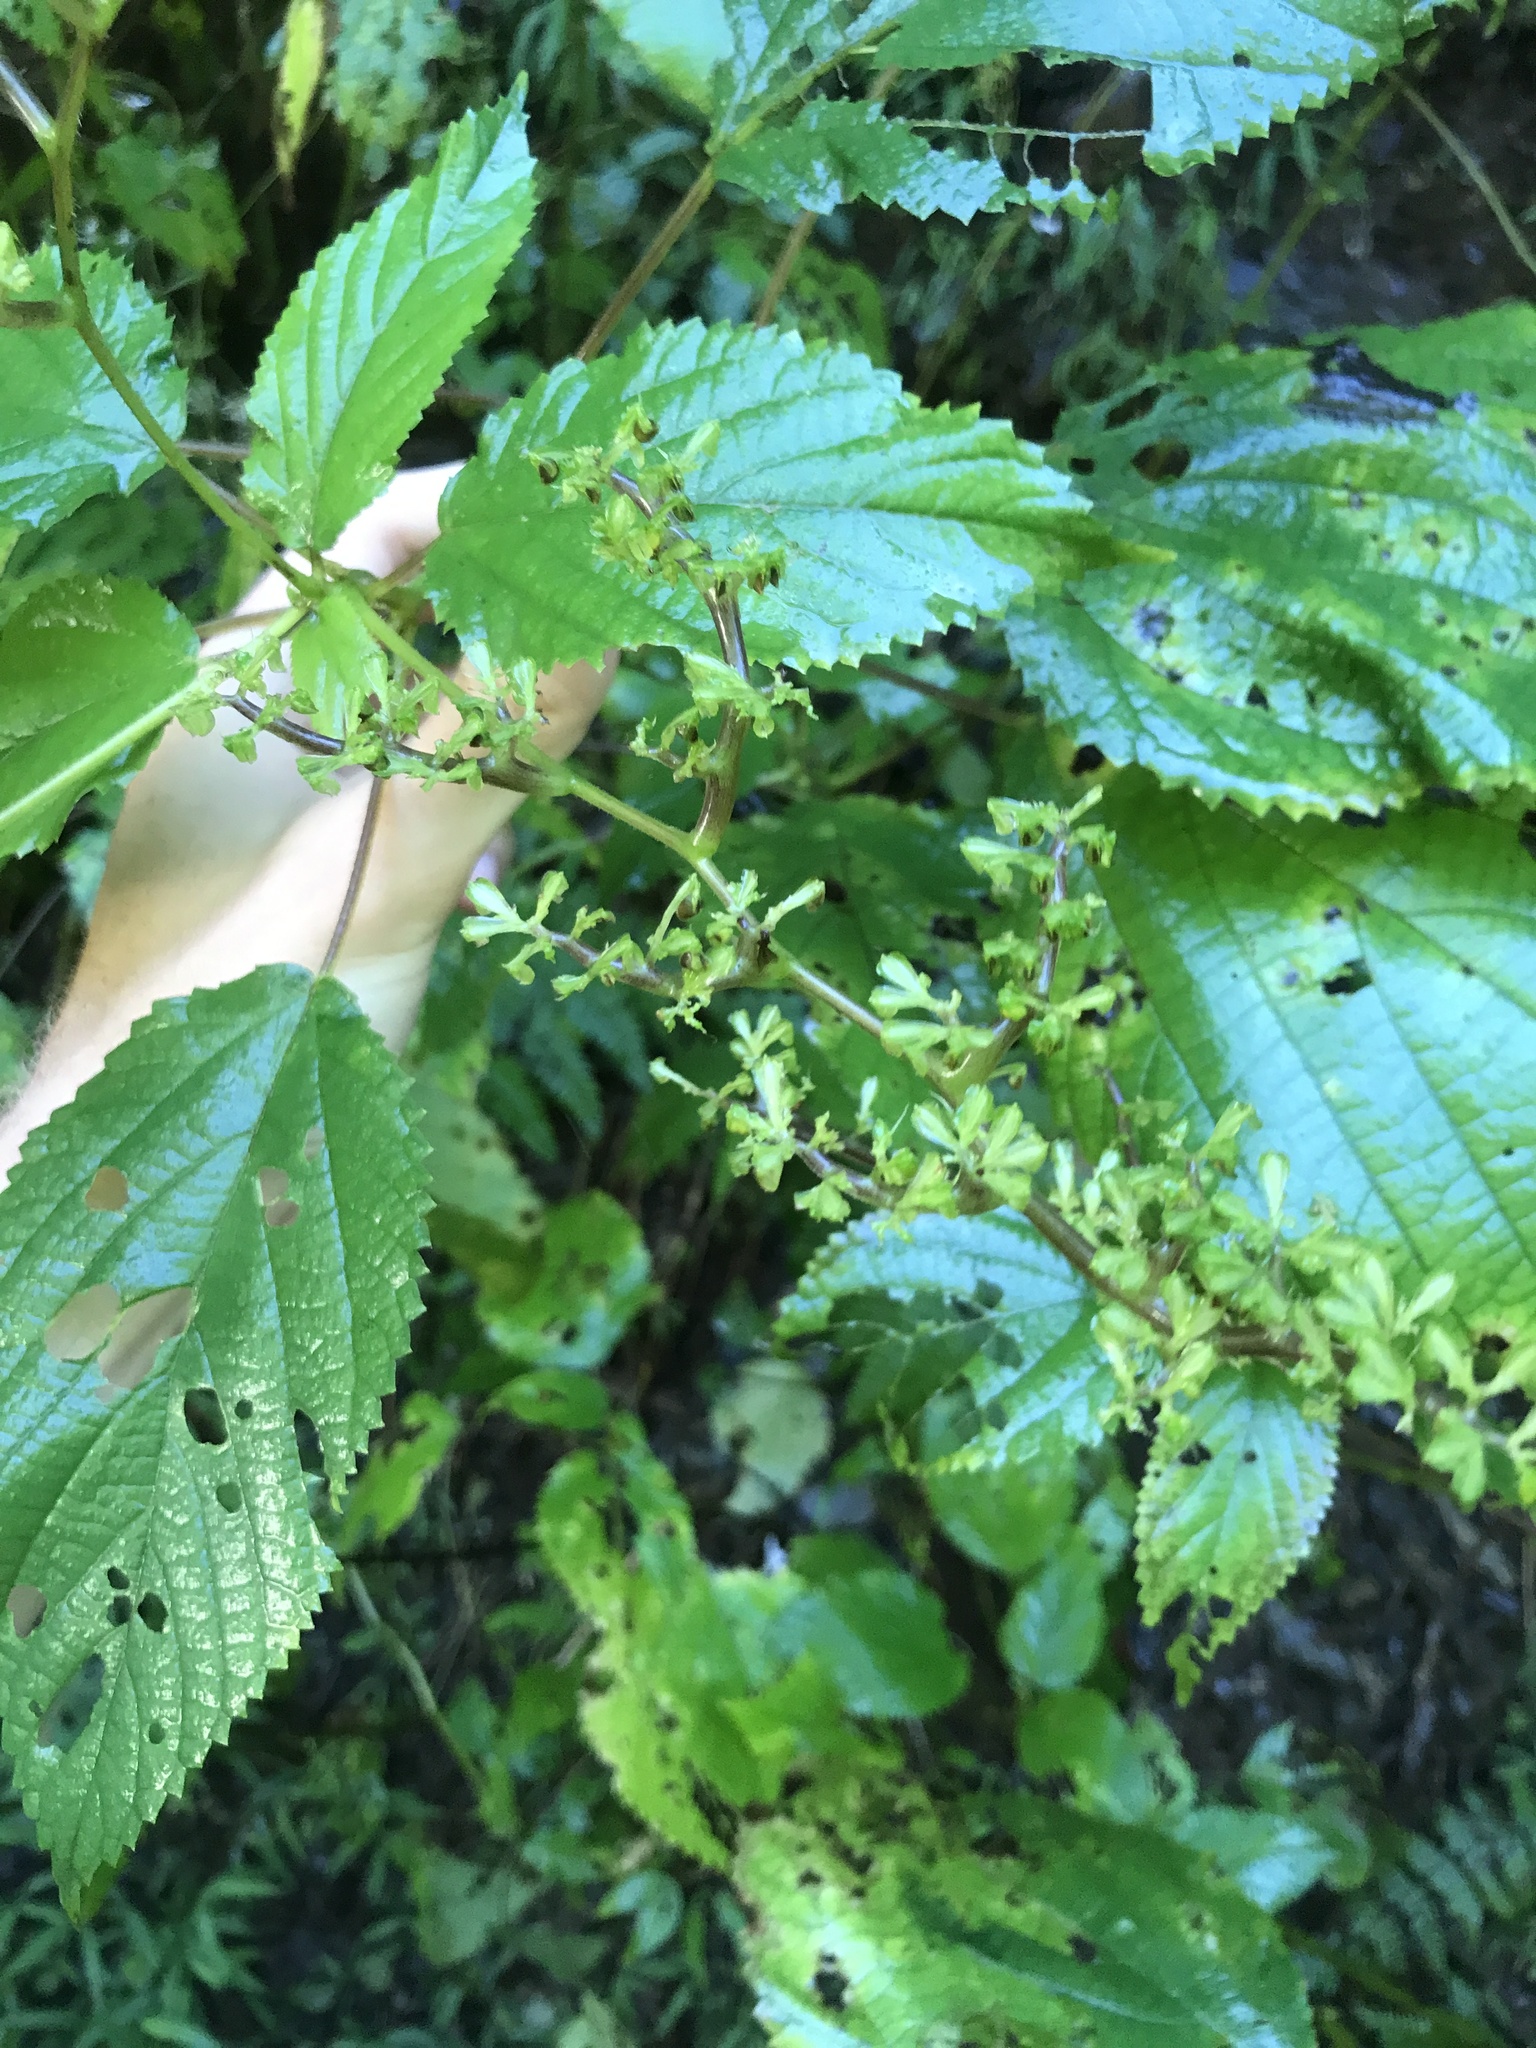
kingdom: Plantae
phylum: Tracheophyta
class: Magnoliopsida
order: Rosales
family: Urticaceae
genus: Laportea
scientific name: Laportea canadensis
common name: Canada nettle
